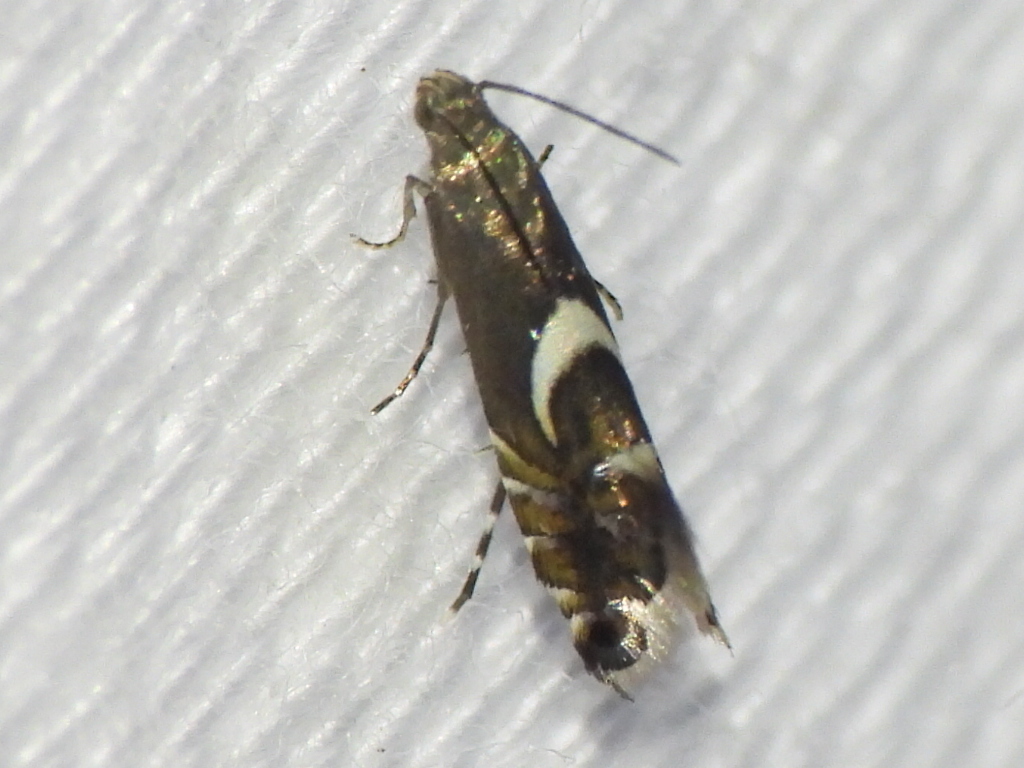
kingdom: Animalia
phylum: Arthropoda
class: Insecta
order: Lepidoptera
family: Glyphipterigidae
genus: Glyphipterix
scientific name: Glyphipterix Diploschizia impigritella
